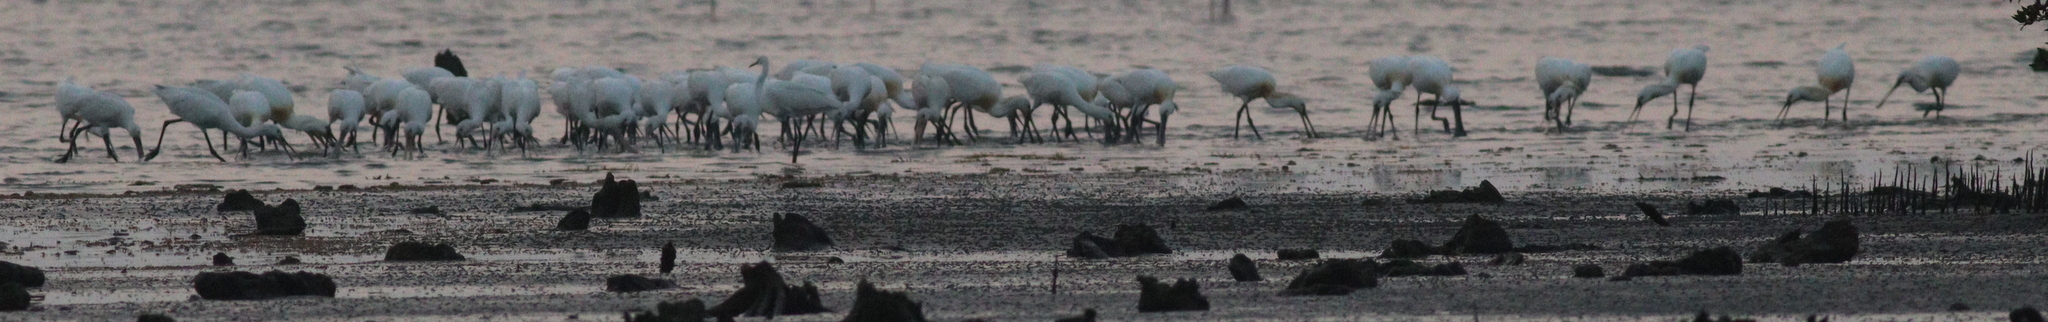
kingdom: Animalia
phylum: Chordata
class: Aves
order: Pelecaniformes
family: Threskiornithidae
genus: Platalea
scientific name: Platalea leucorodia
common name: Eurasian spoonbill
